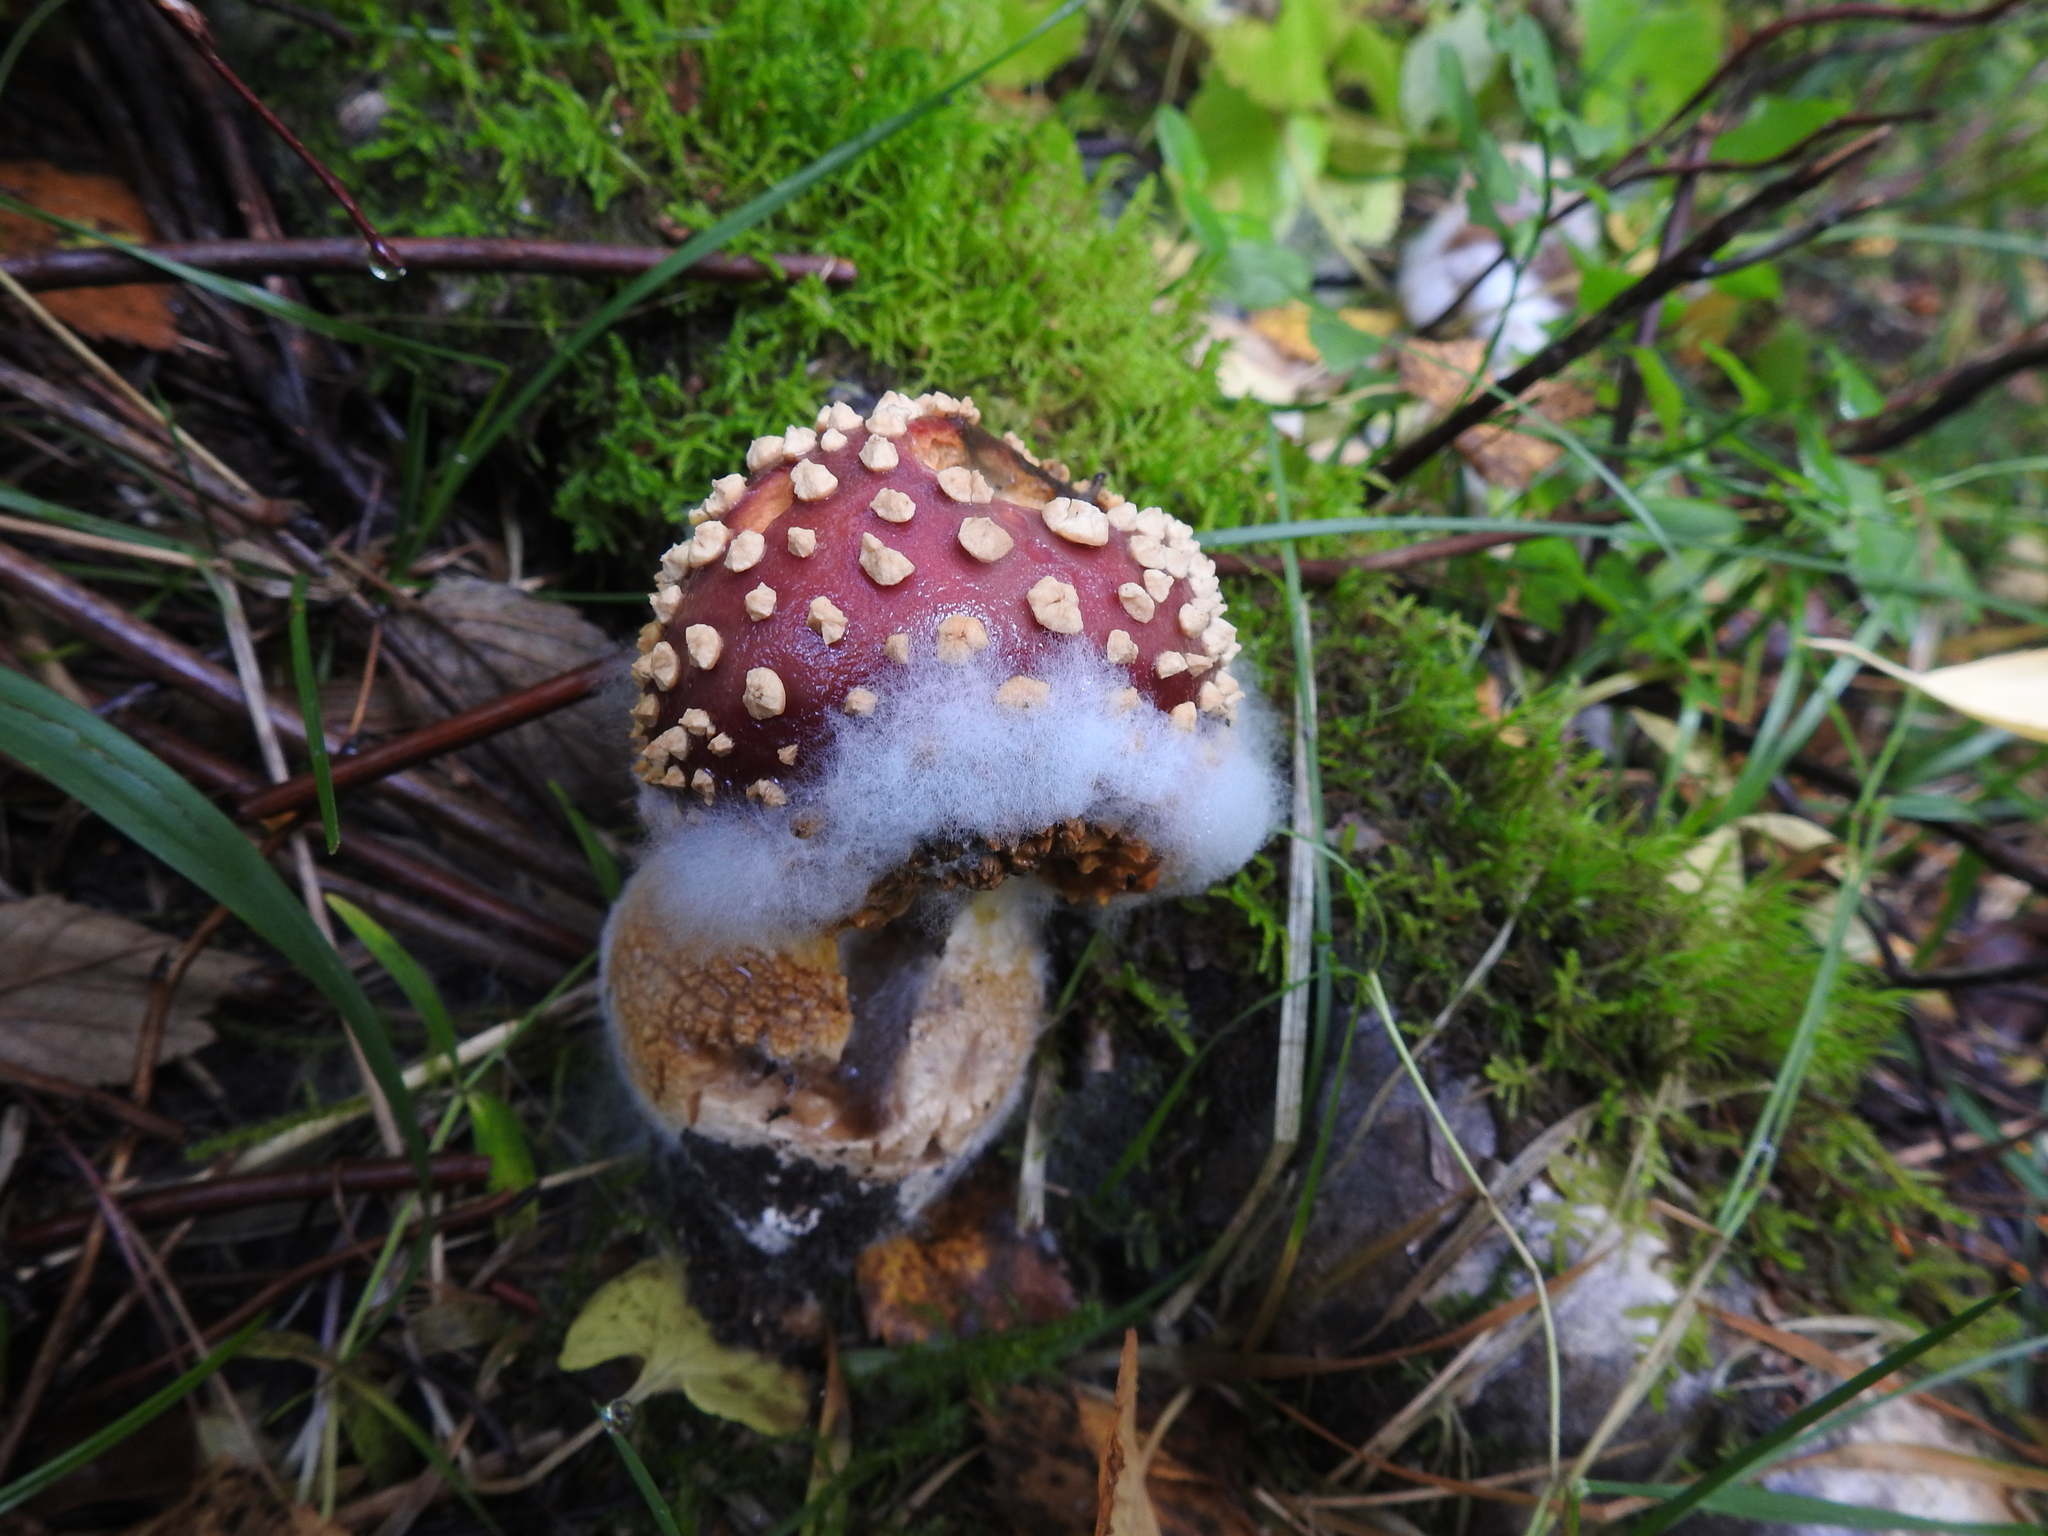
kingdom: Fungi
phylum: Basidiomycota
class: Agaricomycetes
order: Agaricales
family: Amanitaceae
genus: Amanita
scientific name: Amanita muscaria
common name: Fly agaric
